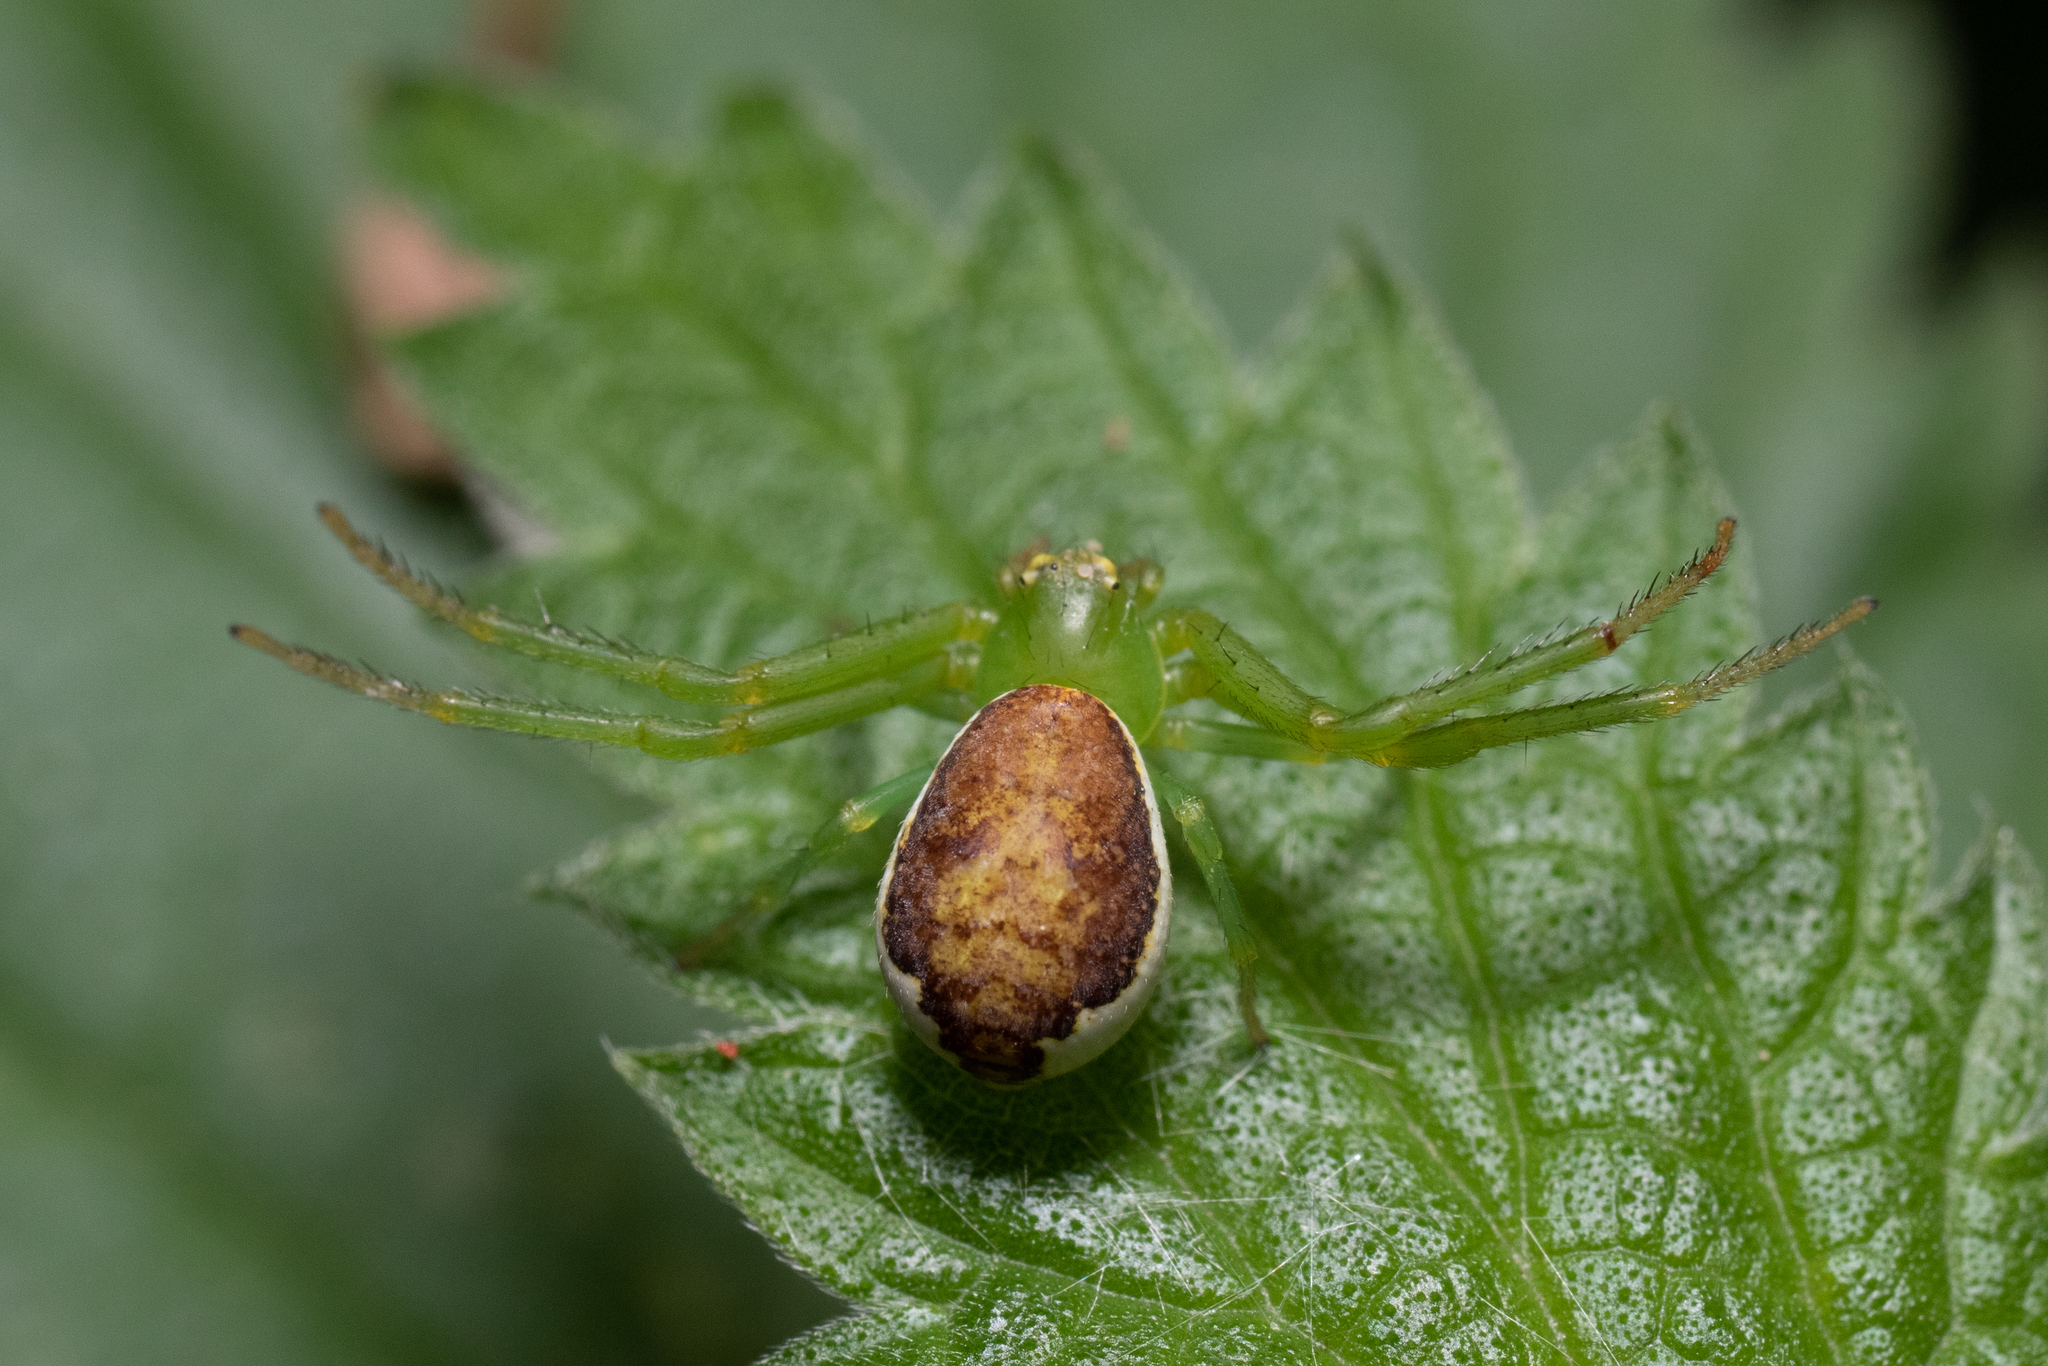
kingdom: Animalia
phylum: Arthropoda
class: Arachnida
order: Araneae
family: Thomisidae
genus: Diaea
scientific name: Diaea dorsata
